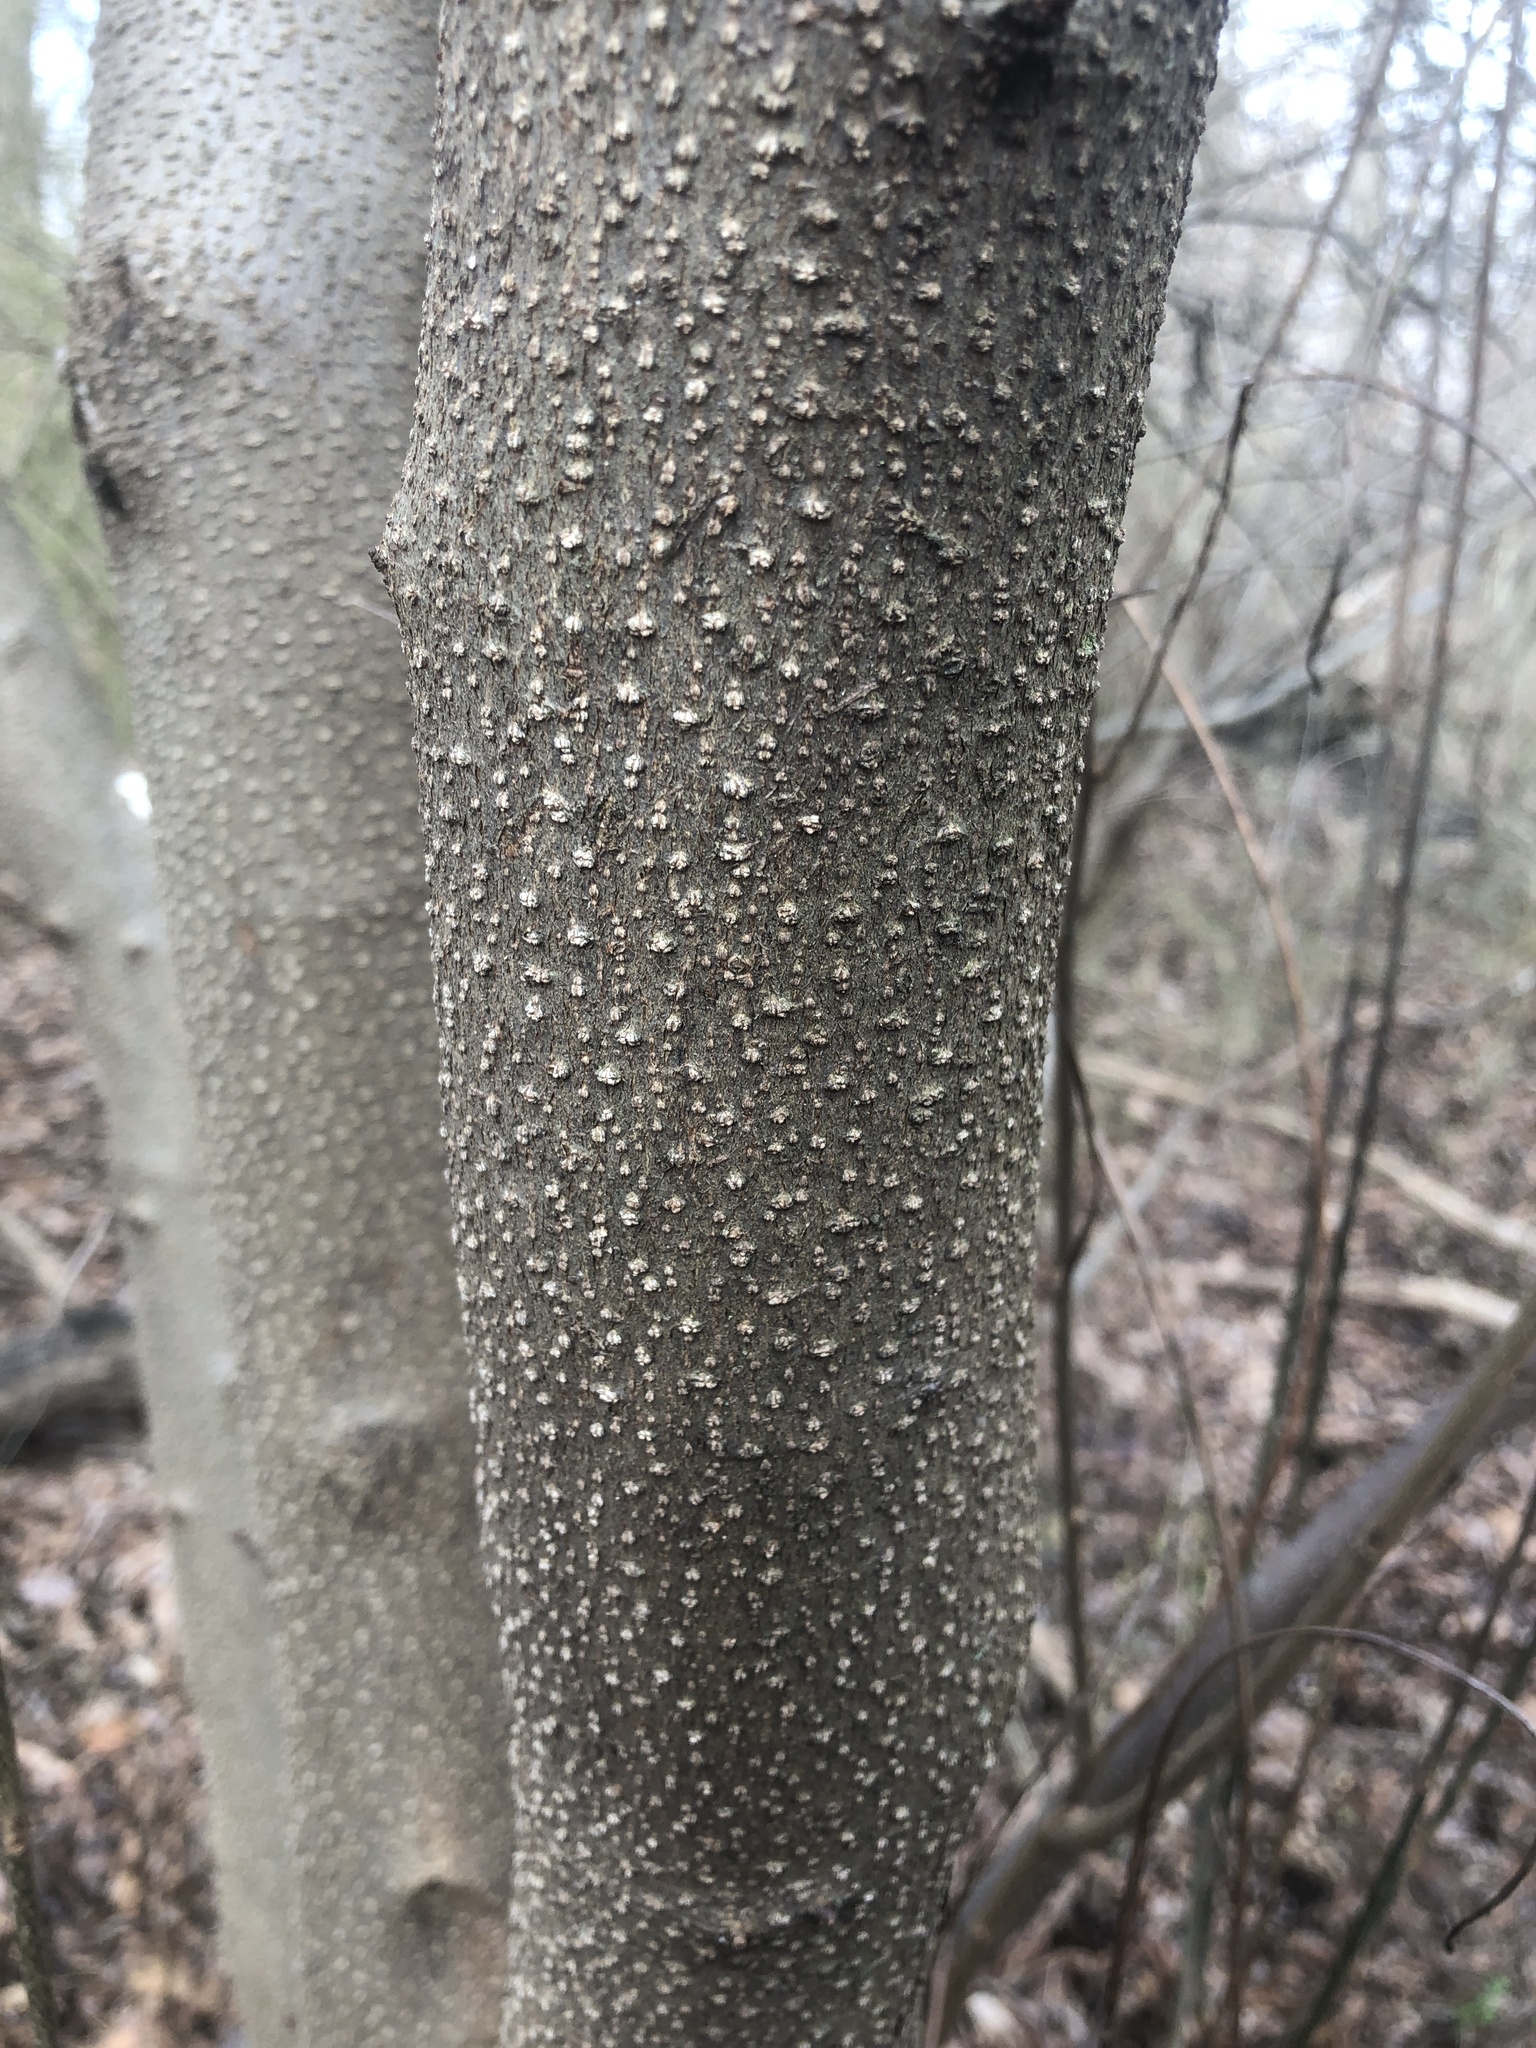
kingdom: Plantae
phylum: Tracheophyta
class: Magnoliopsida
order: Laurales
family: Lauraceae
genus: Lindera
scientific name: Lindera benzoin
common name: Spicebush
